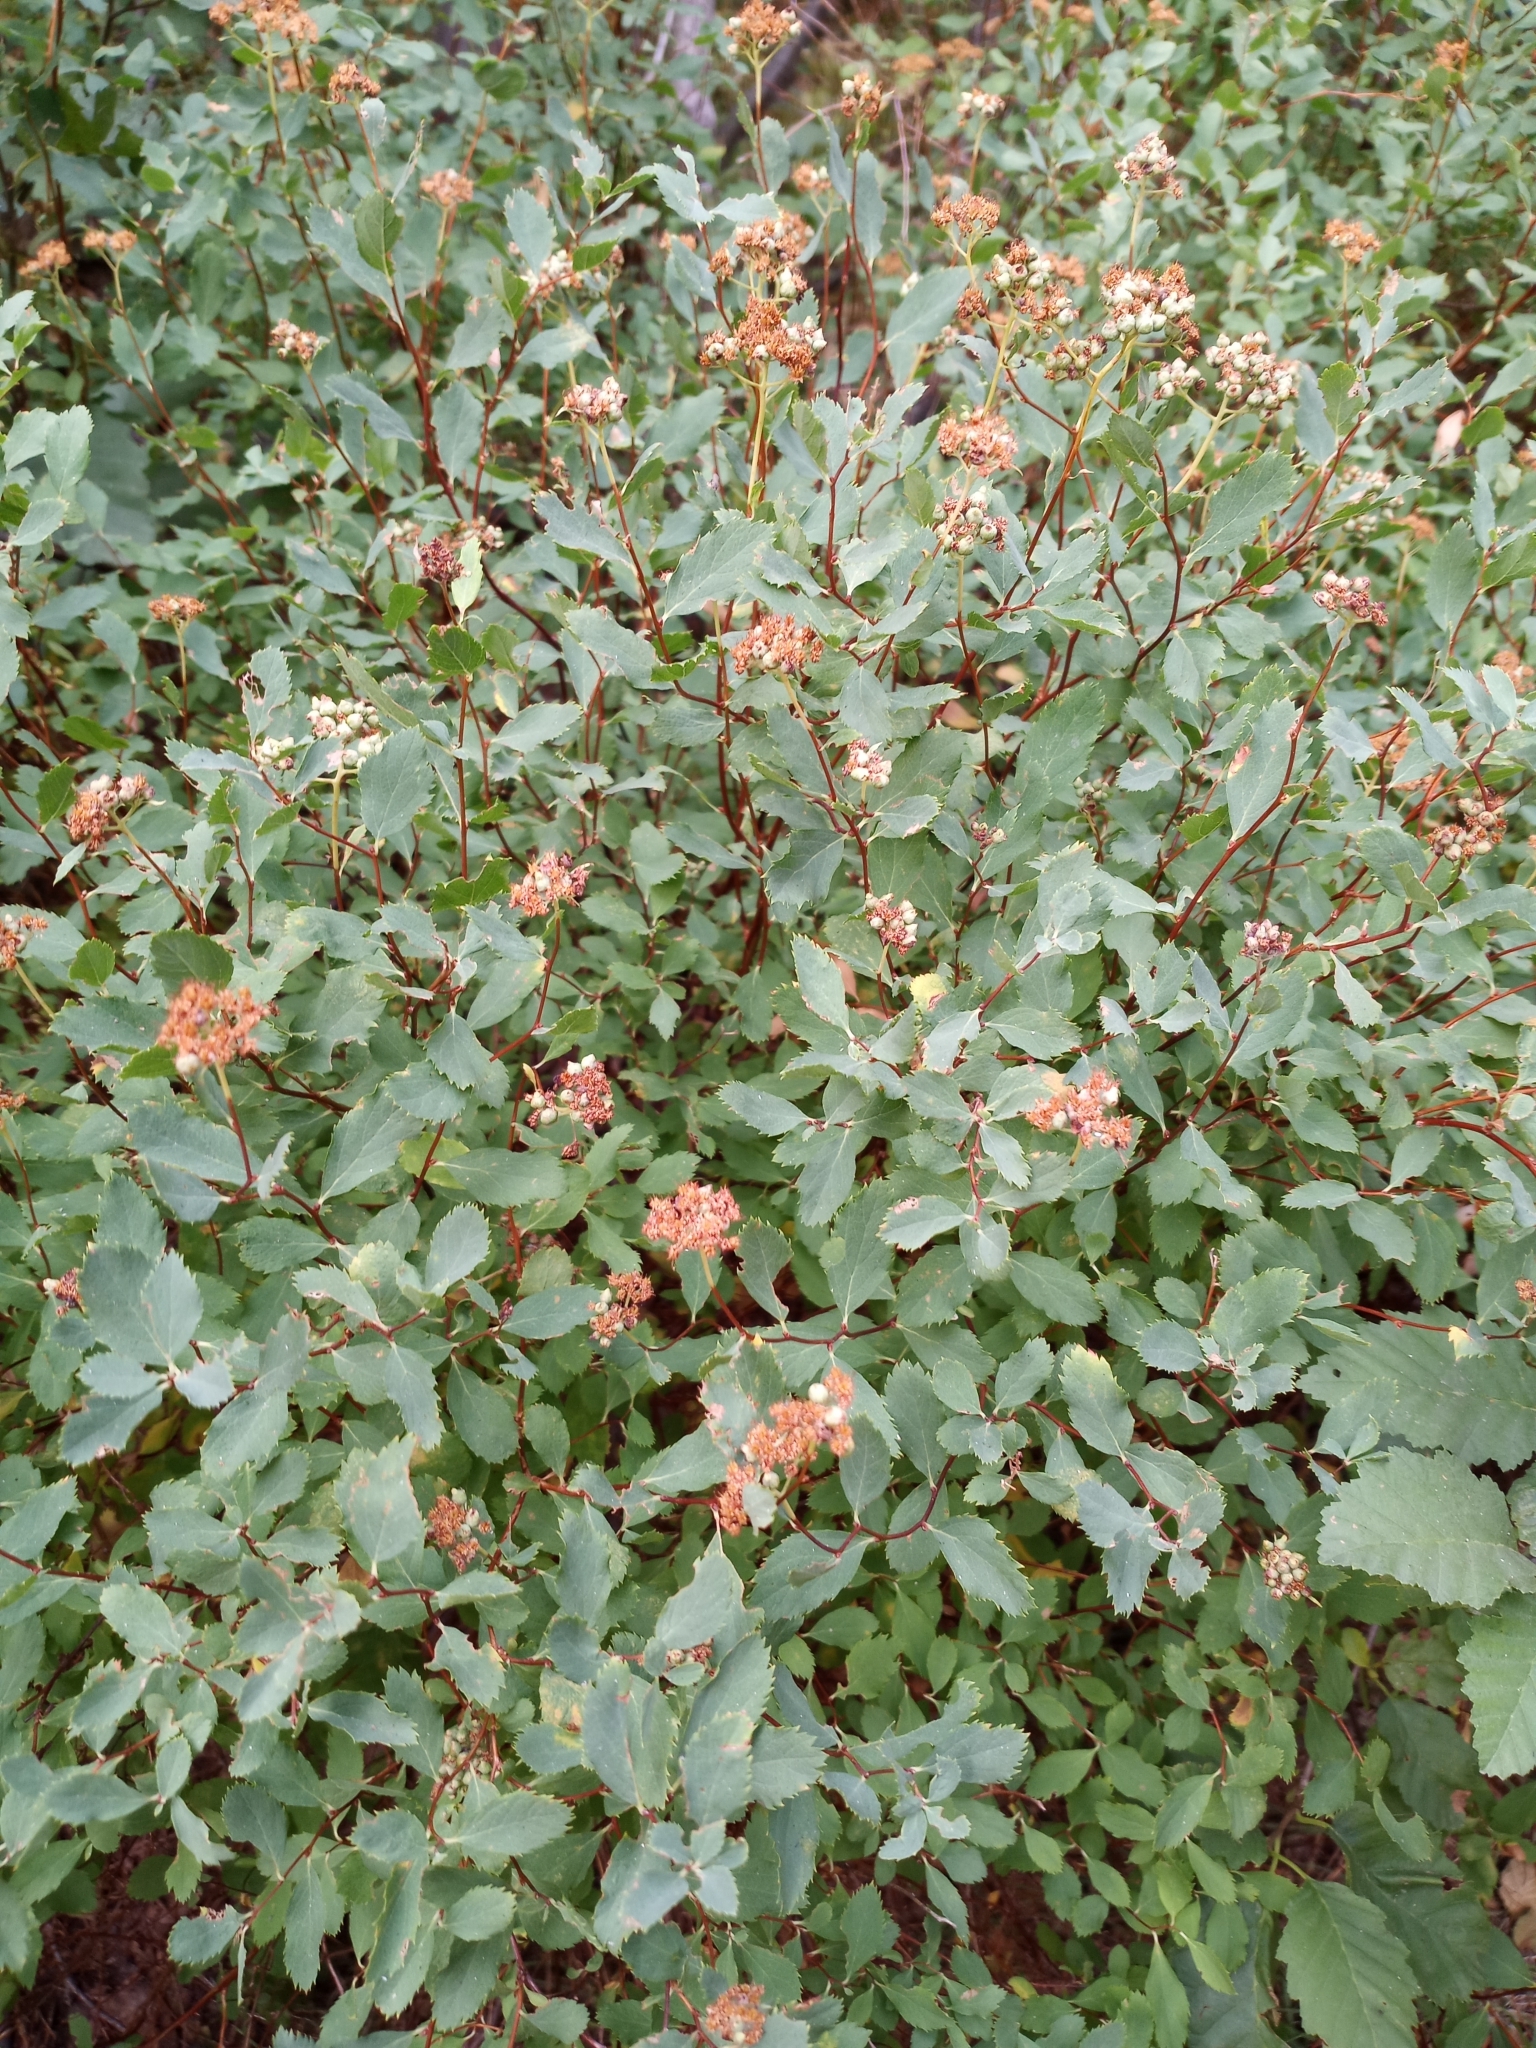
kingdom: Plantae
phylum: Tracheophyta
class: Magnoliopsida
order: Rosales
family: Rosaceae
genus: Spiraea
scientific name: Spiraea splendens
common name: Subalpine meadowsweet
